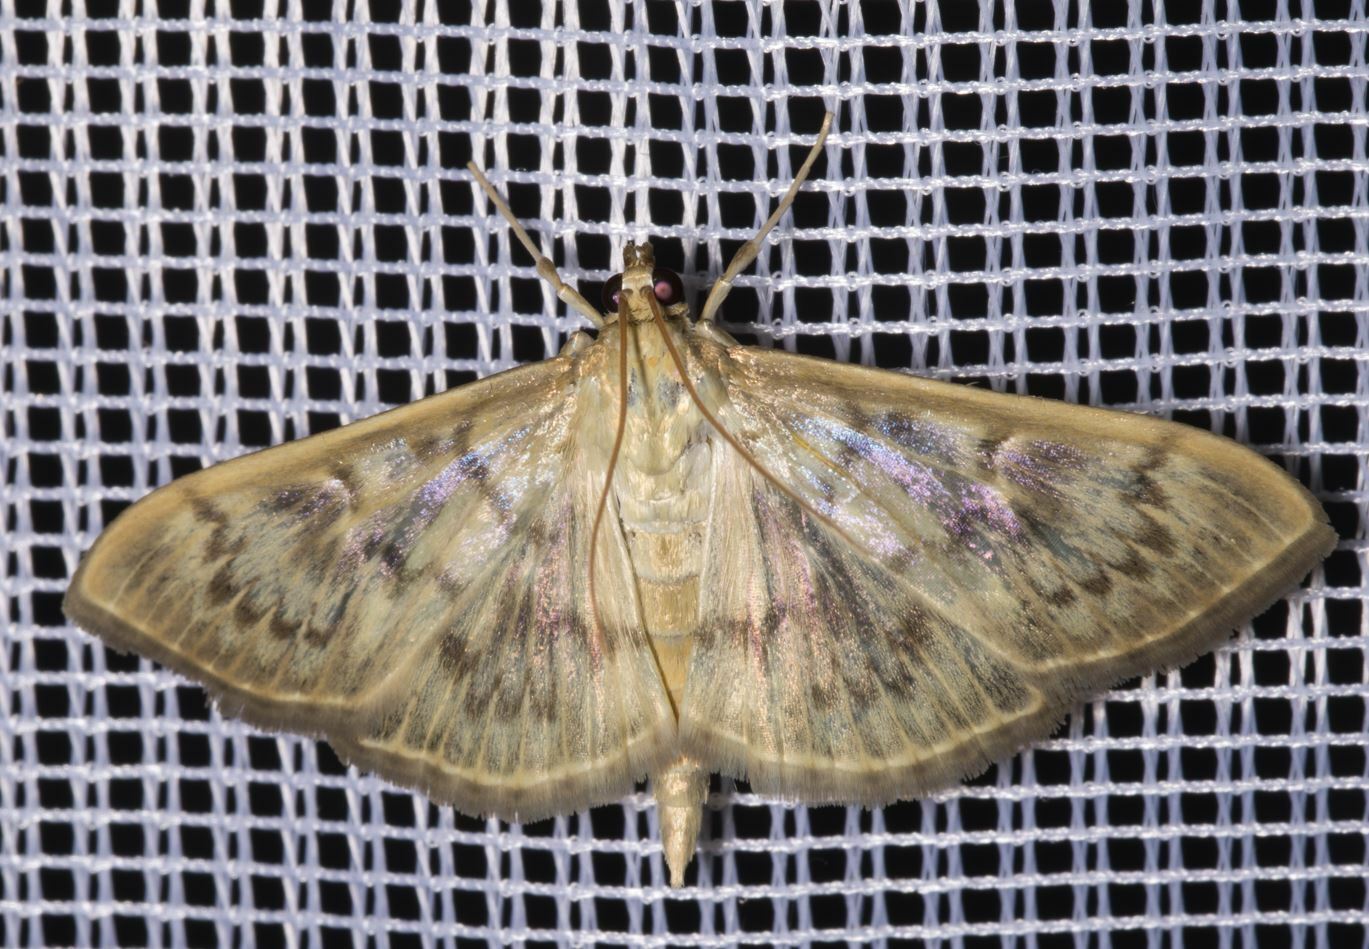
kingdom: Animalia
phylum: Arthropoda
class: Insecta
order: Lepidoptera
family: Crambidae
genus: Patania
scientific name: Patania ruralis
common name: Mother of pearl
